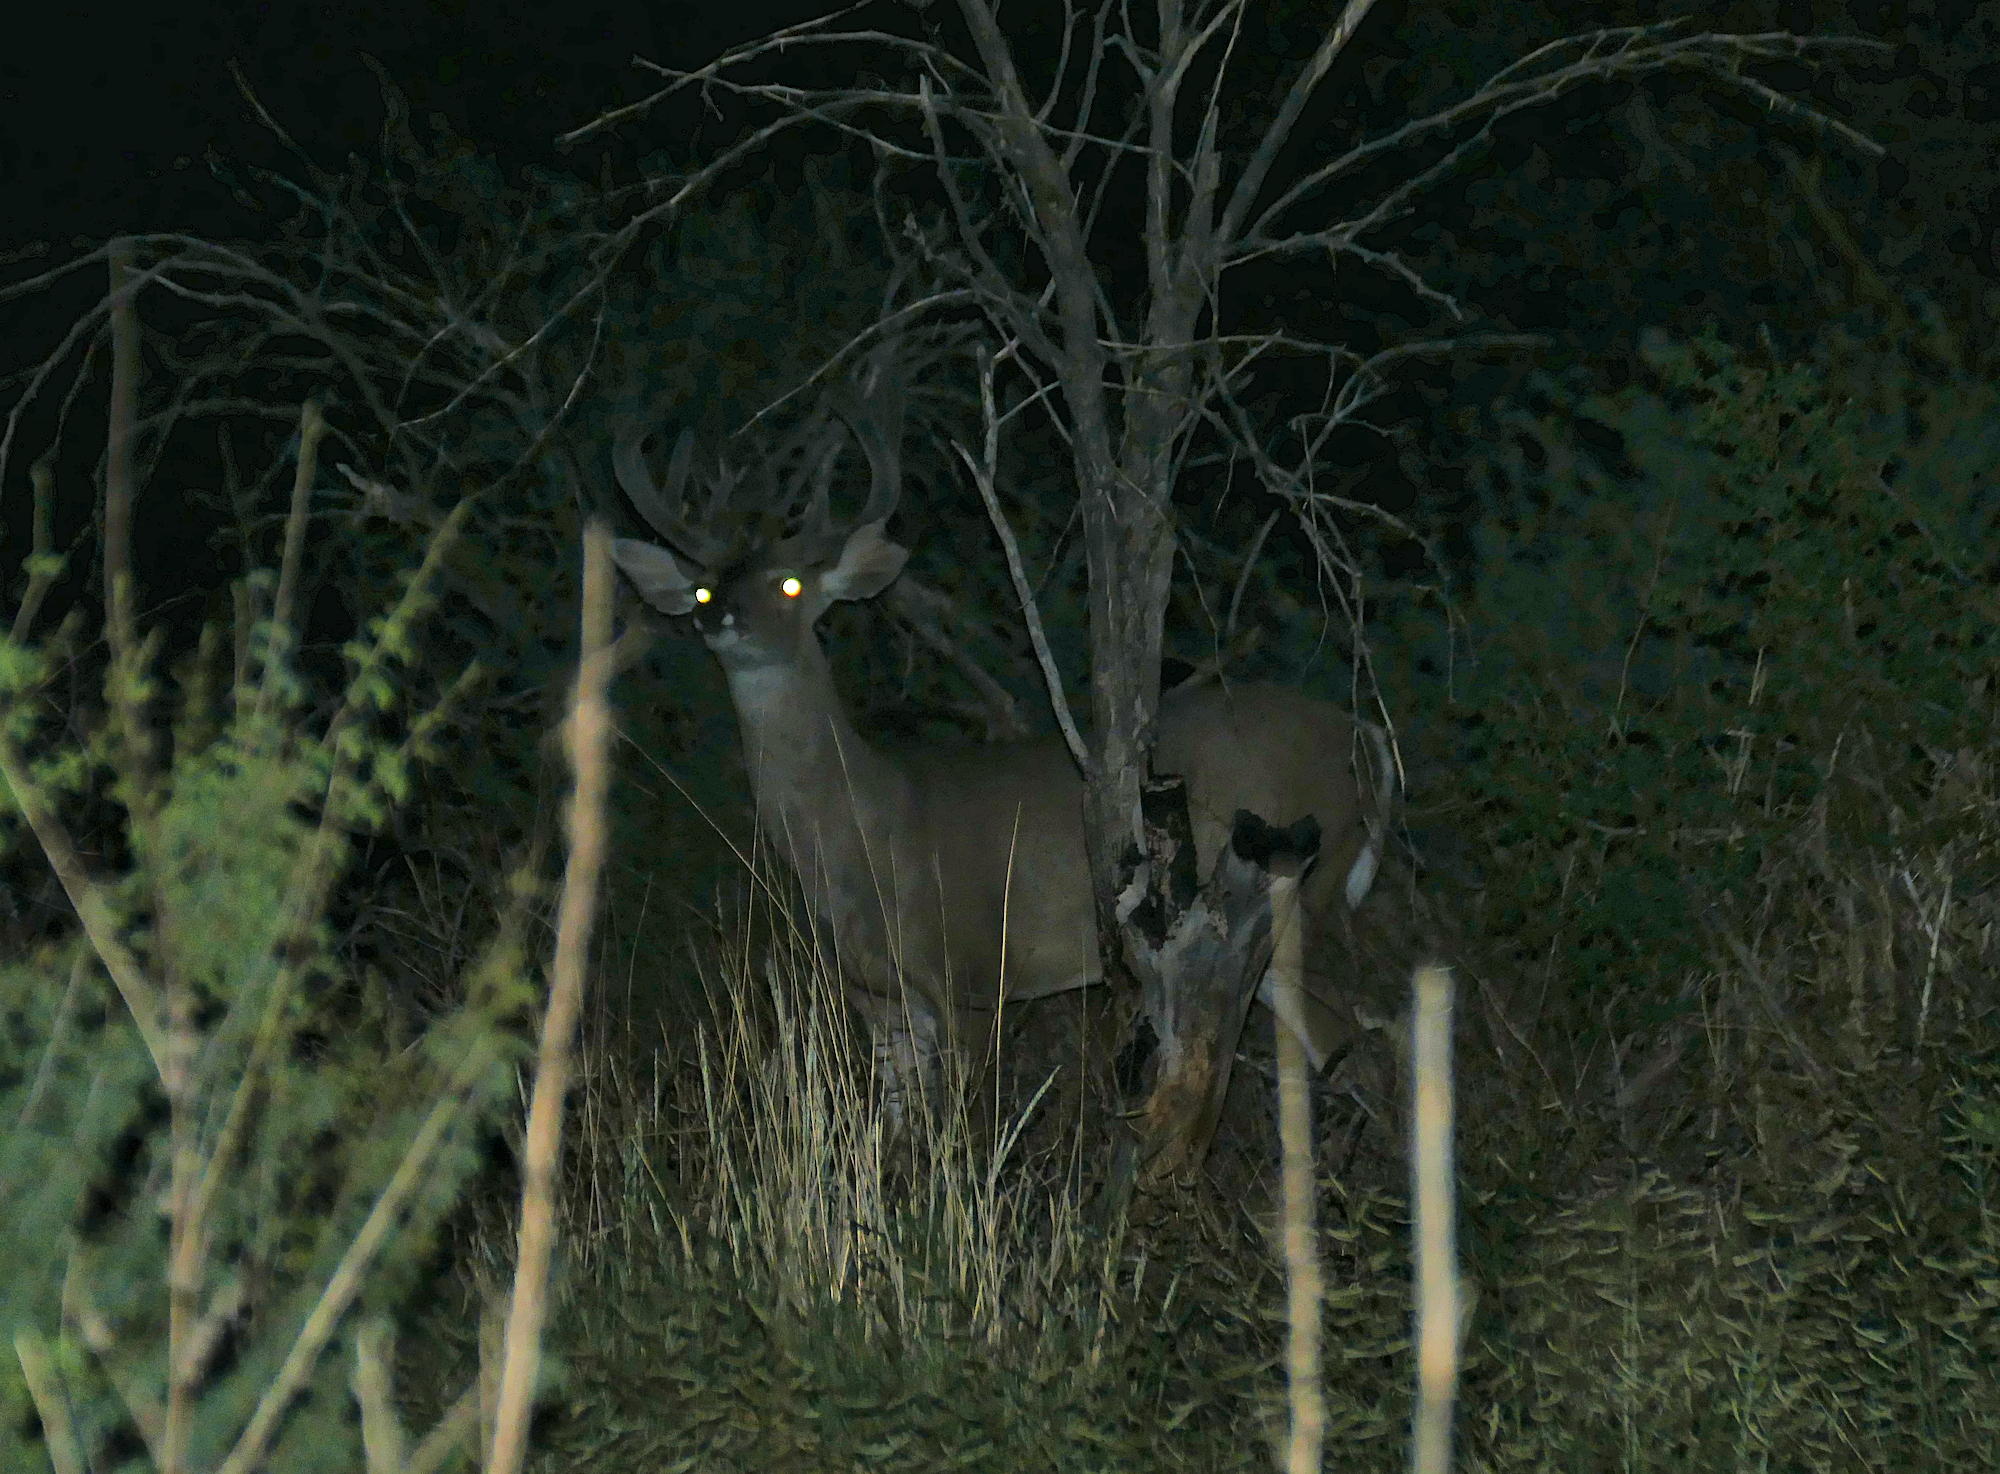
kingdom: Animalia
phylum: Chordata
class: Mammalia
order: Artiodactyla
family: Cervidae
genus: Odocoileus
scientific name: Odocoileus virginianus
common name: White-tailed deer
